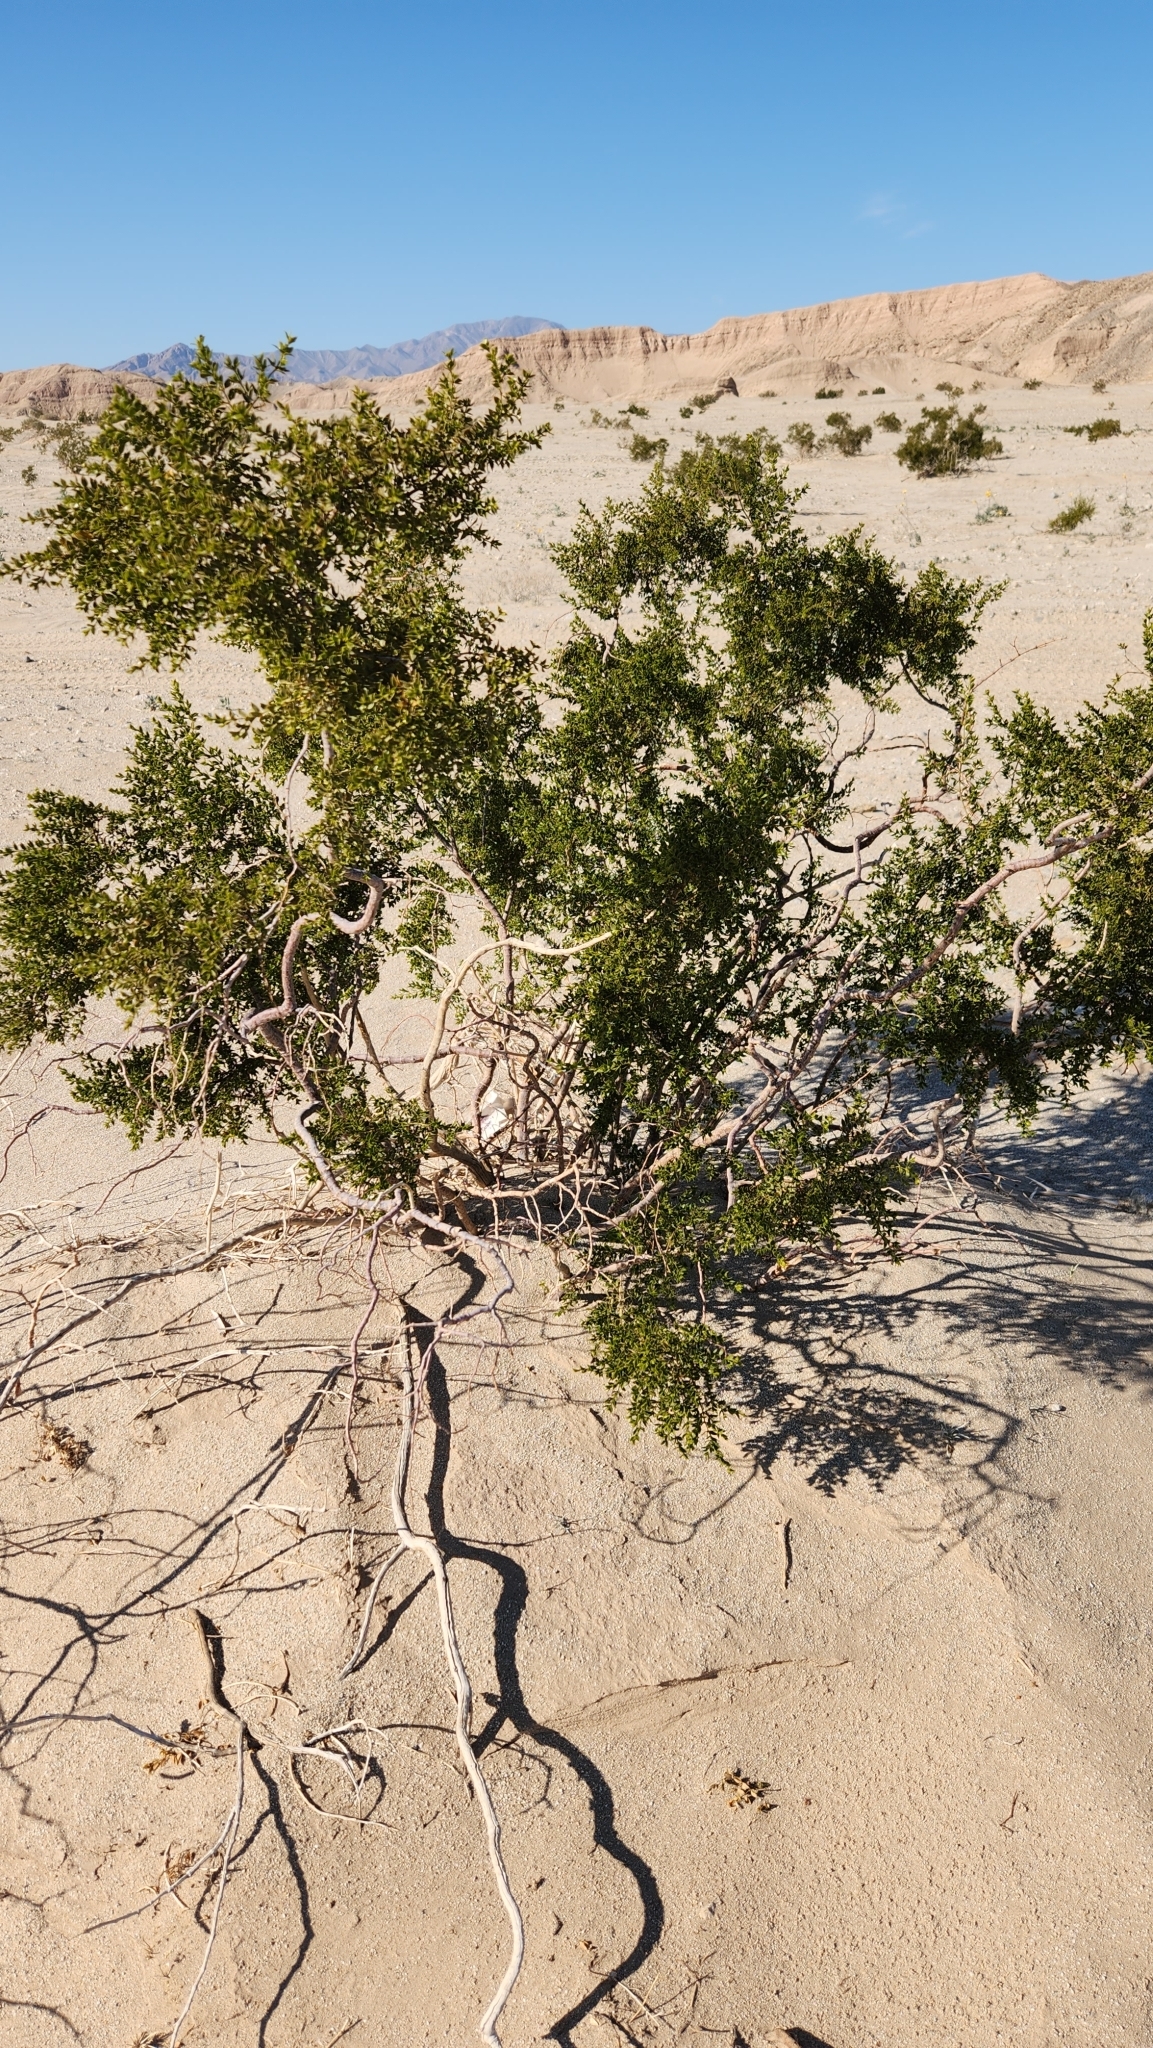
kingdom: Plantae
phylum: Tracheophyta
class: Magnoliopsida
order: Zygophyllales
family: Zygophyllaceae
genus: Larrea
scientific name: Larrea tridentata
